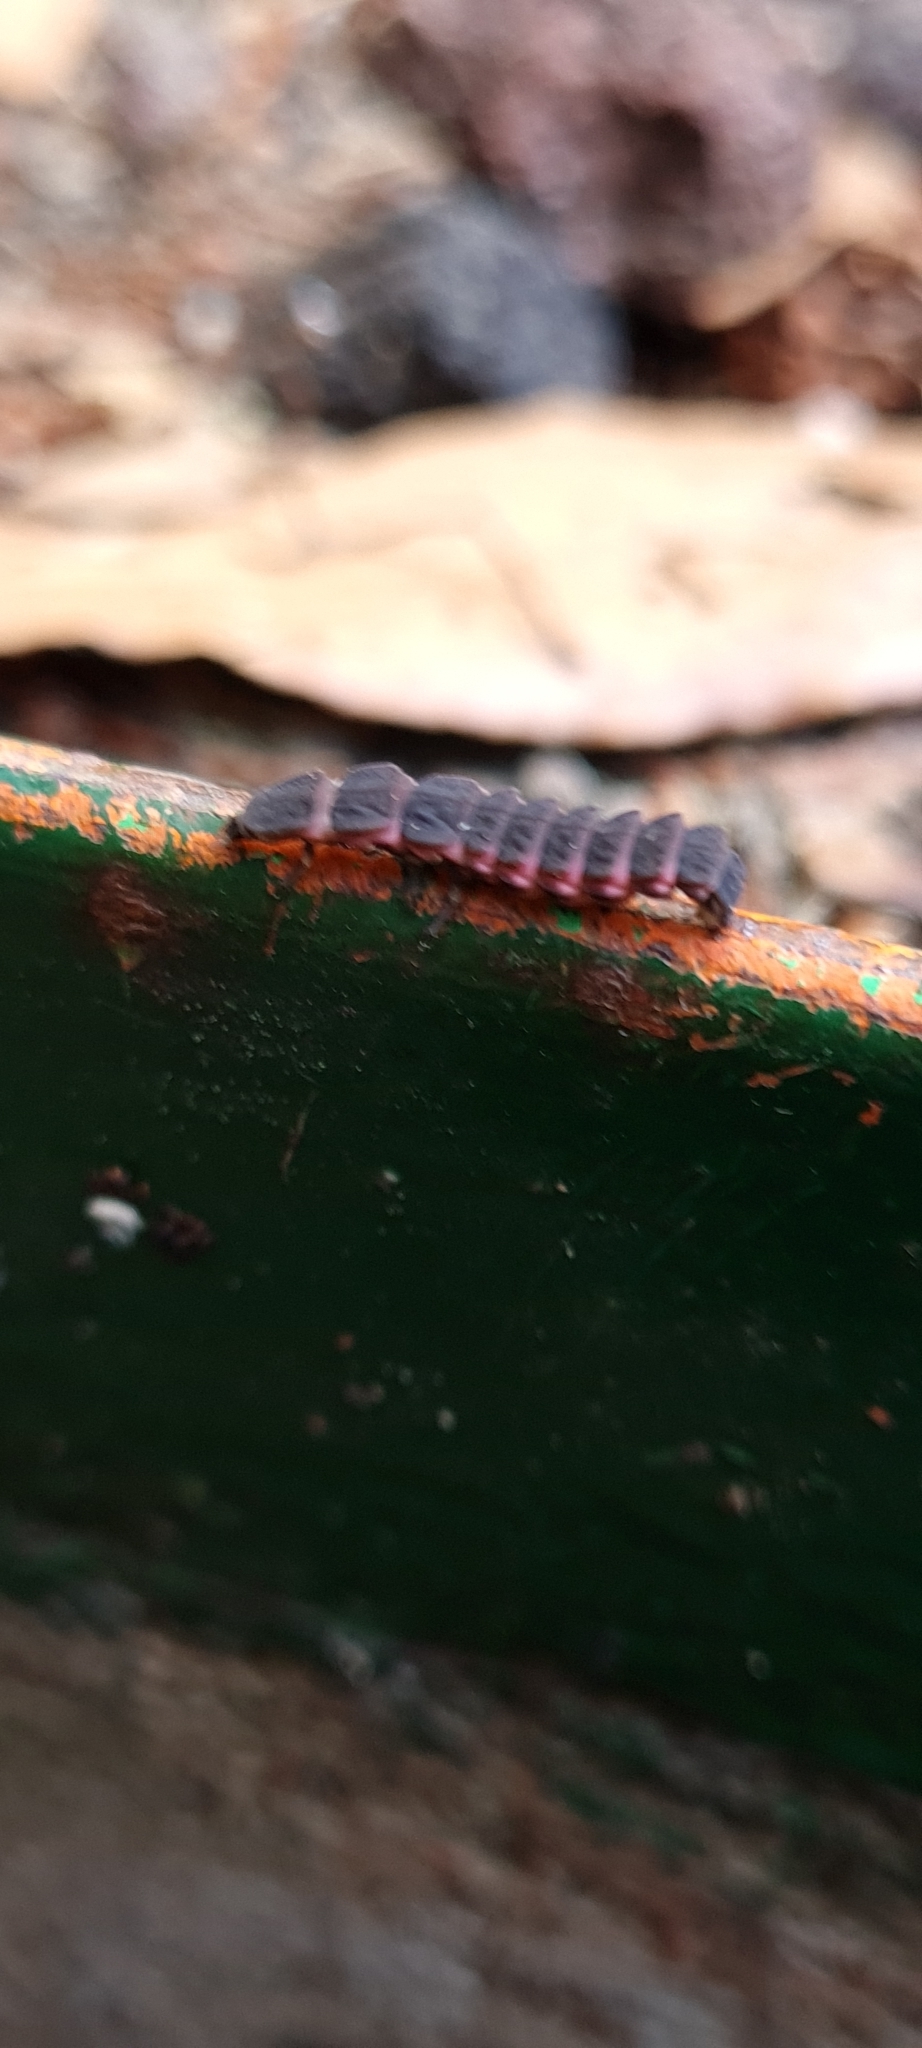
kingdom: Animalia
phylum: Arthropoda
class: Insecta
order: Coleoptera
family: Lampyridae
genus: Nyctophila
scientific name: Nyctophila reichii
